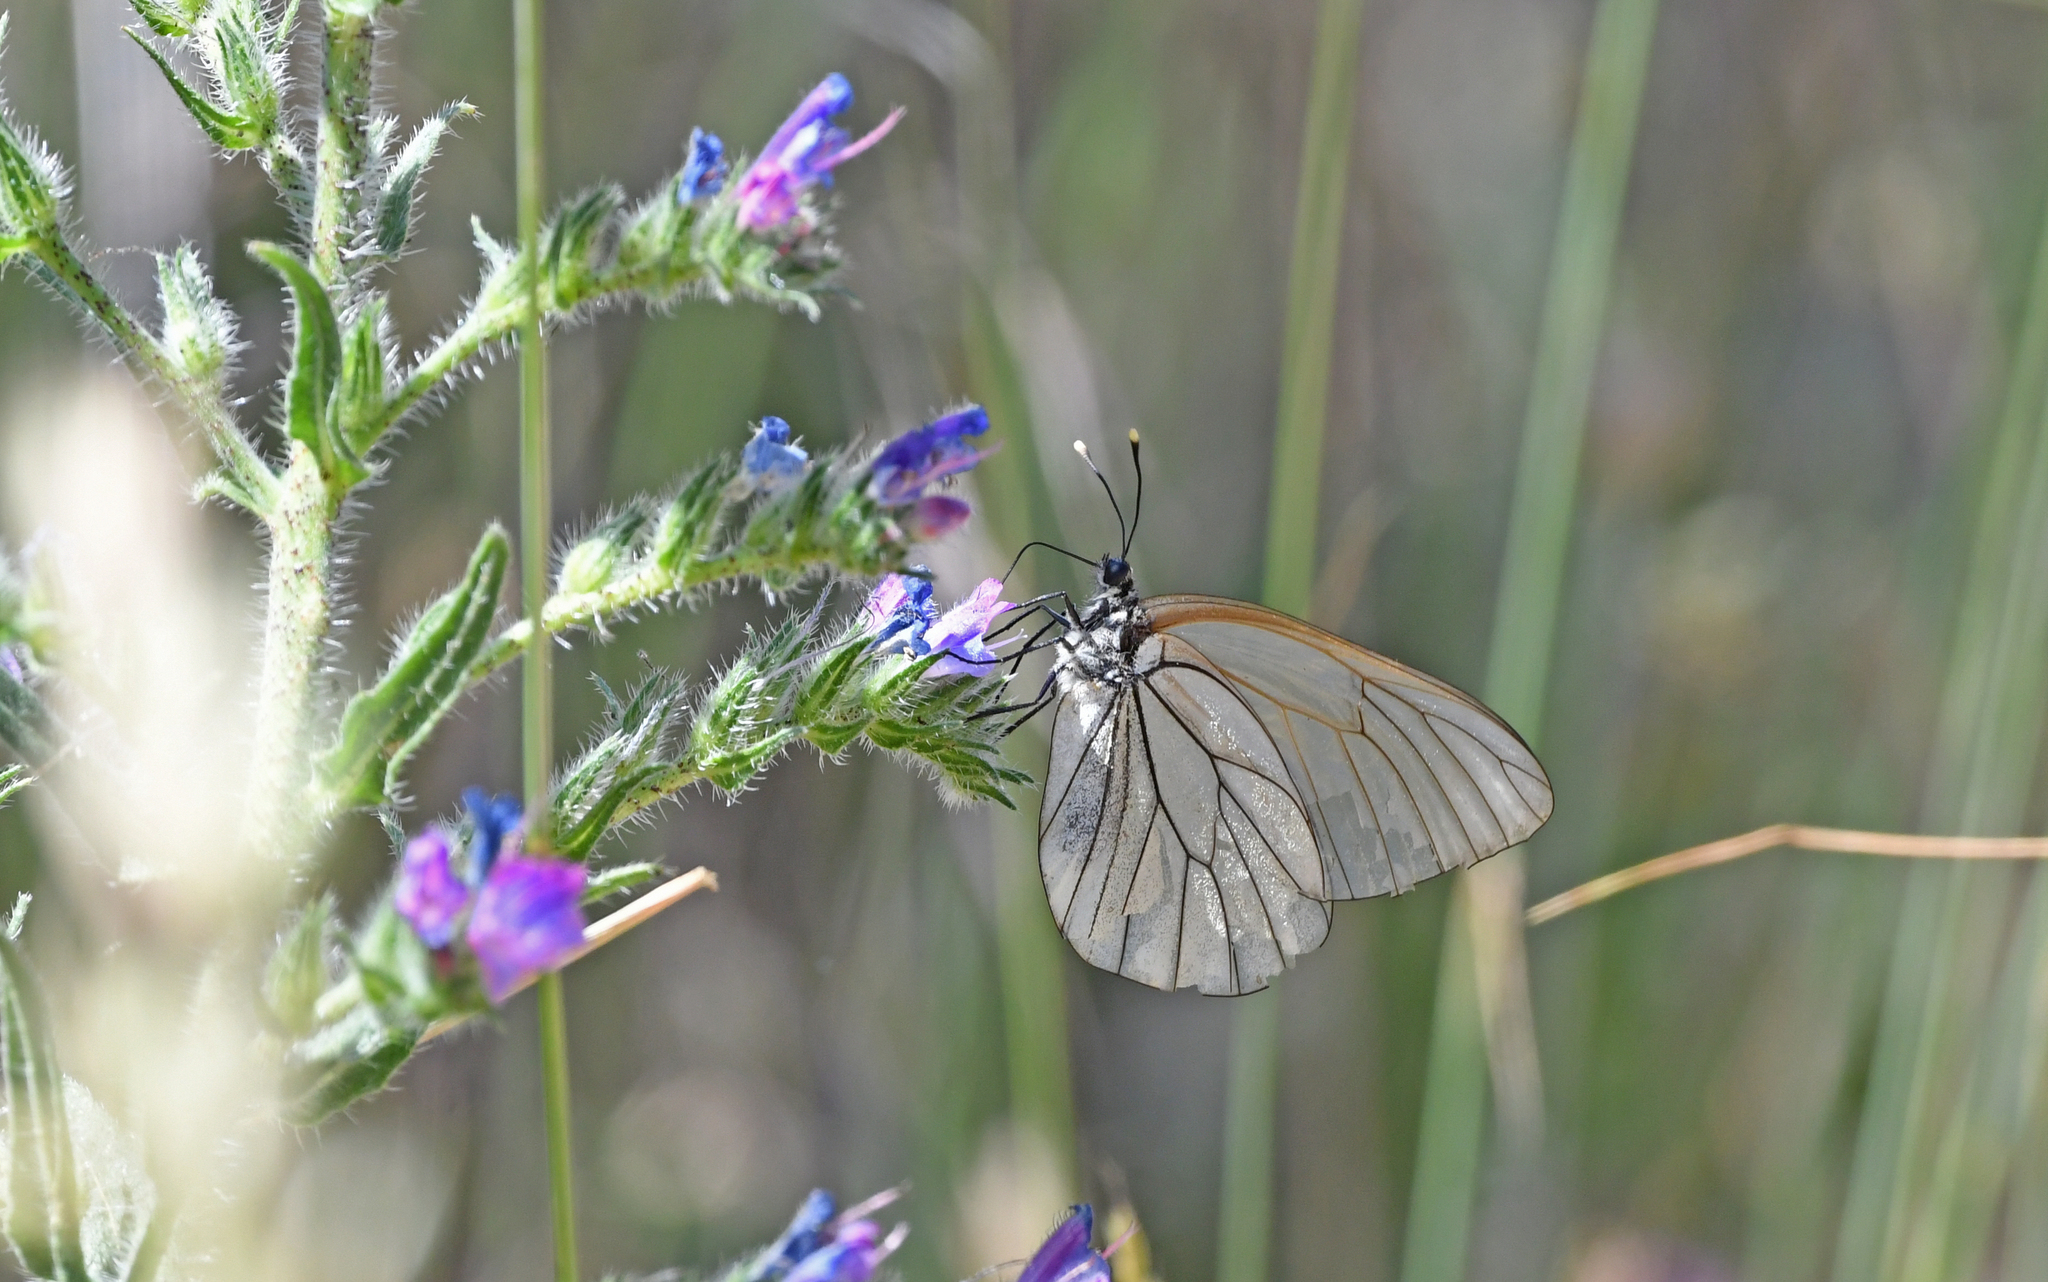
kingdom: Animalia
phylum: Arthropoda
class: Insecta
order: Lepidoptera
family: Pieridae
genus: Aporia
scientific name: Aporia crataegi
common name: Black-veined white
